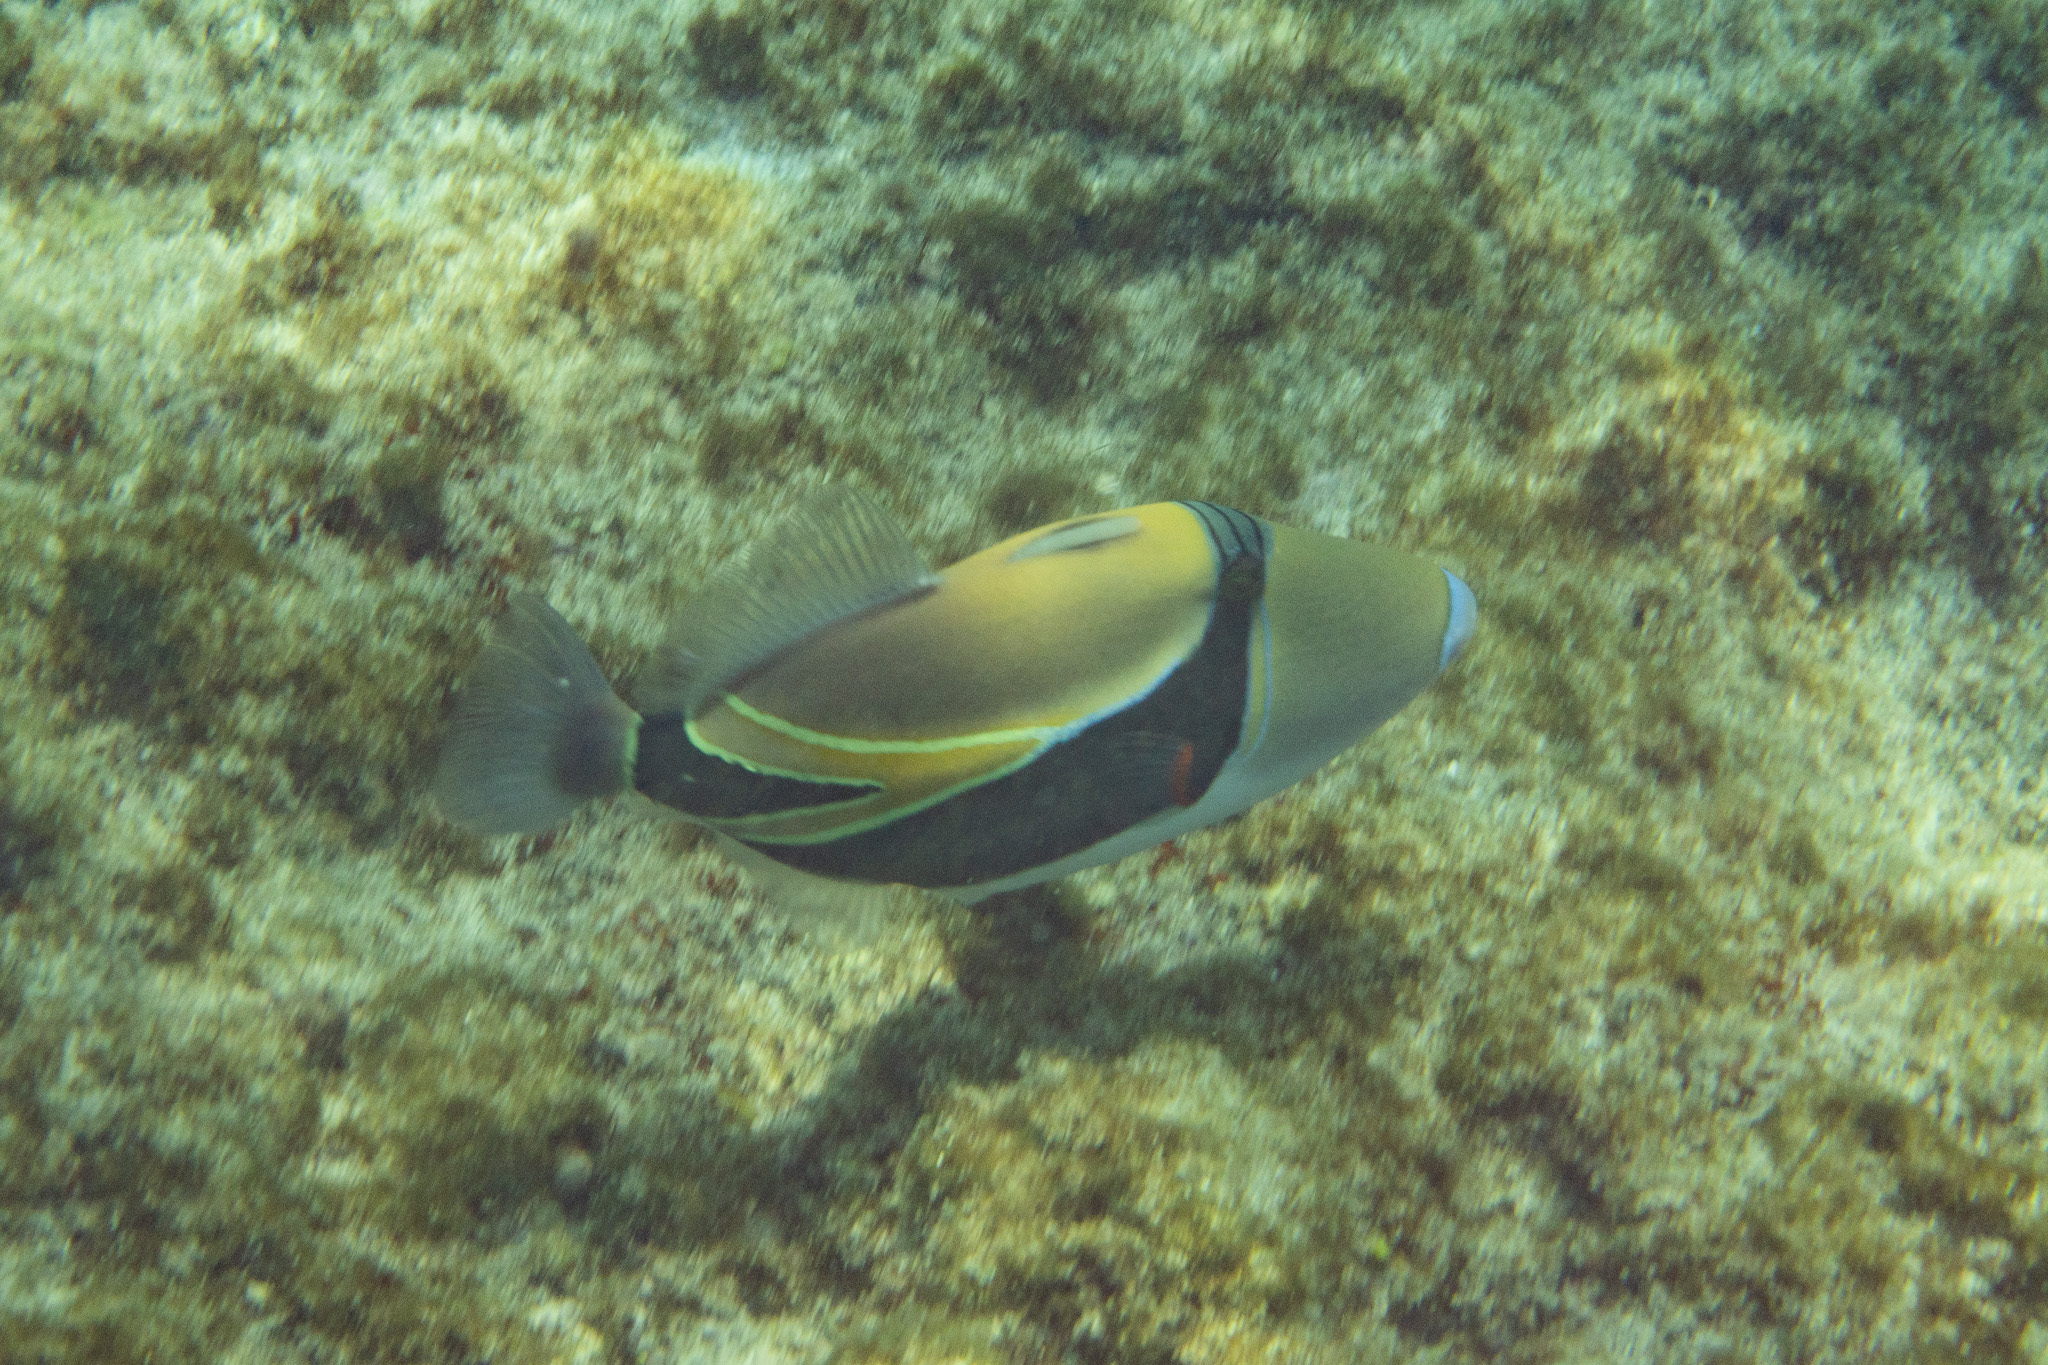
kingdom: Animalia
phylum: Chordata
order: Tetraodontiformes
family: Balistidae
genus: Rhinecanthus
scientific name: Rhinecanthus rectangulus
